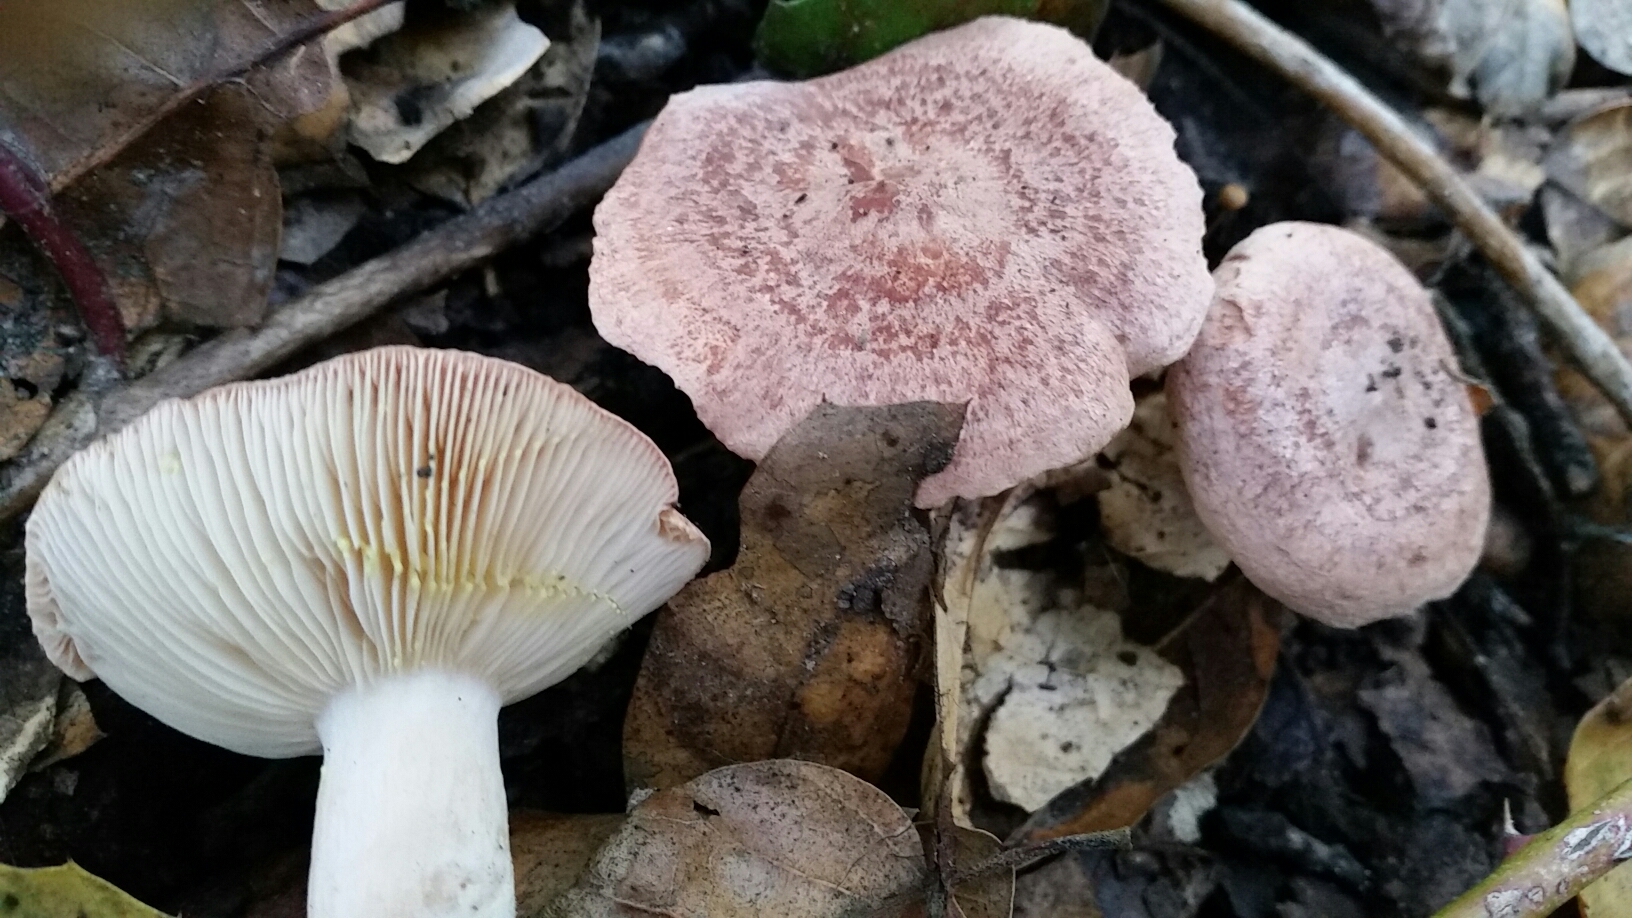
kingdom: Fungi
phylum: Basidiomycota
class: Agaricomycetes
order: Russulales
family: Russulaceae
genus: Lactarius
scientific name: Lactarius xanthogalactus
